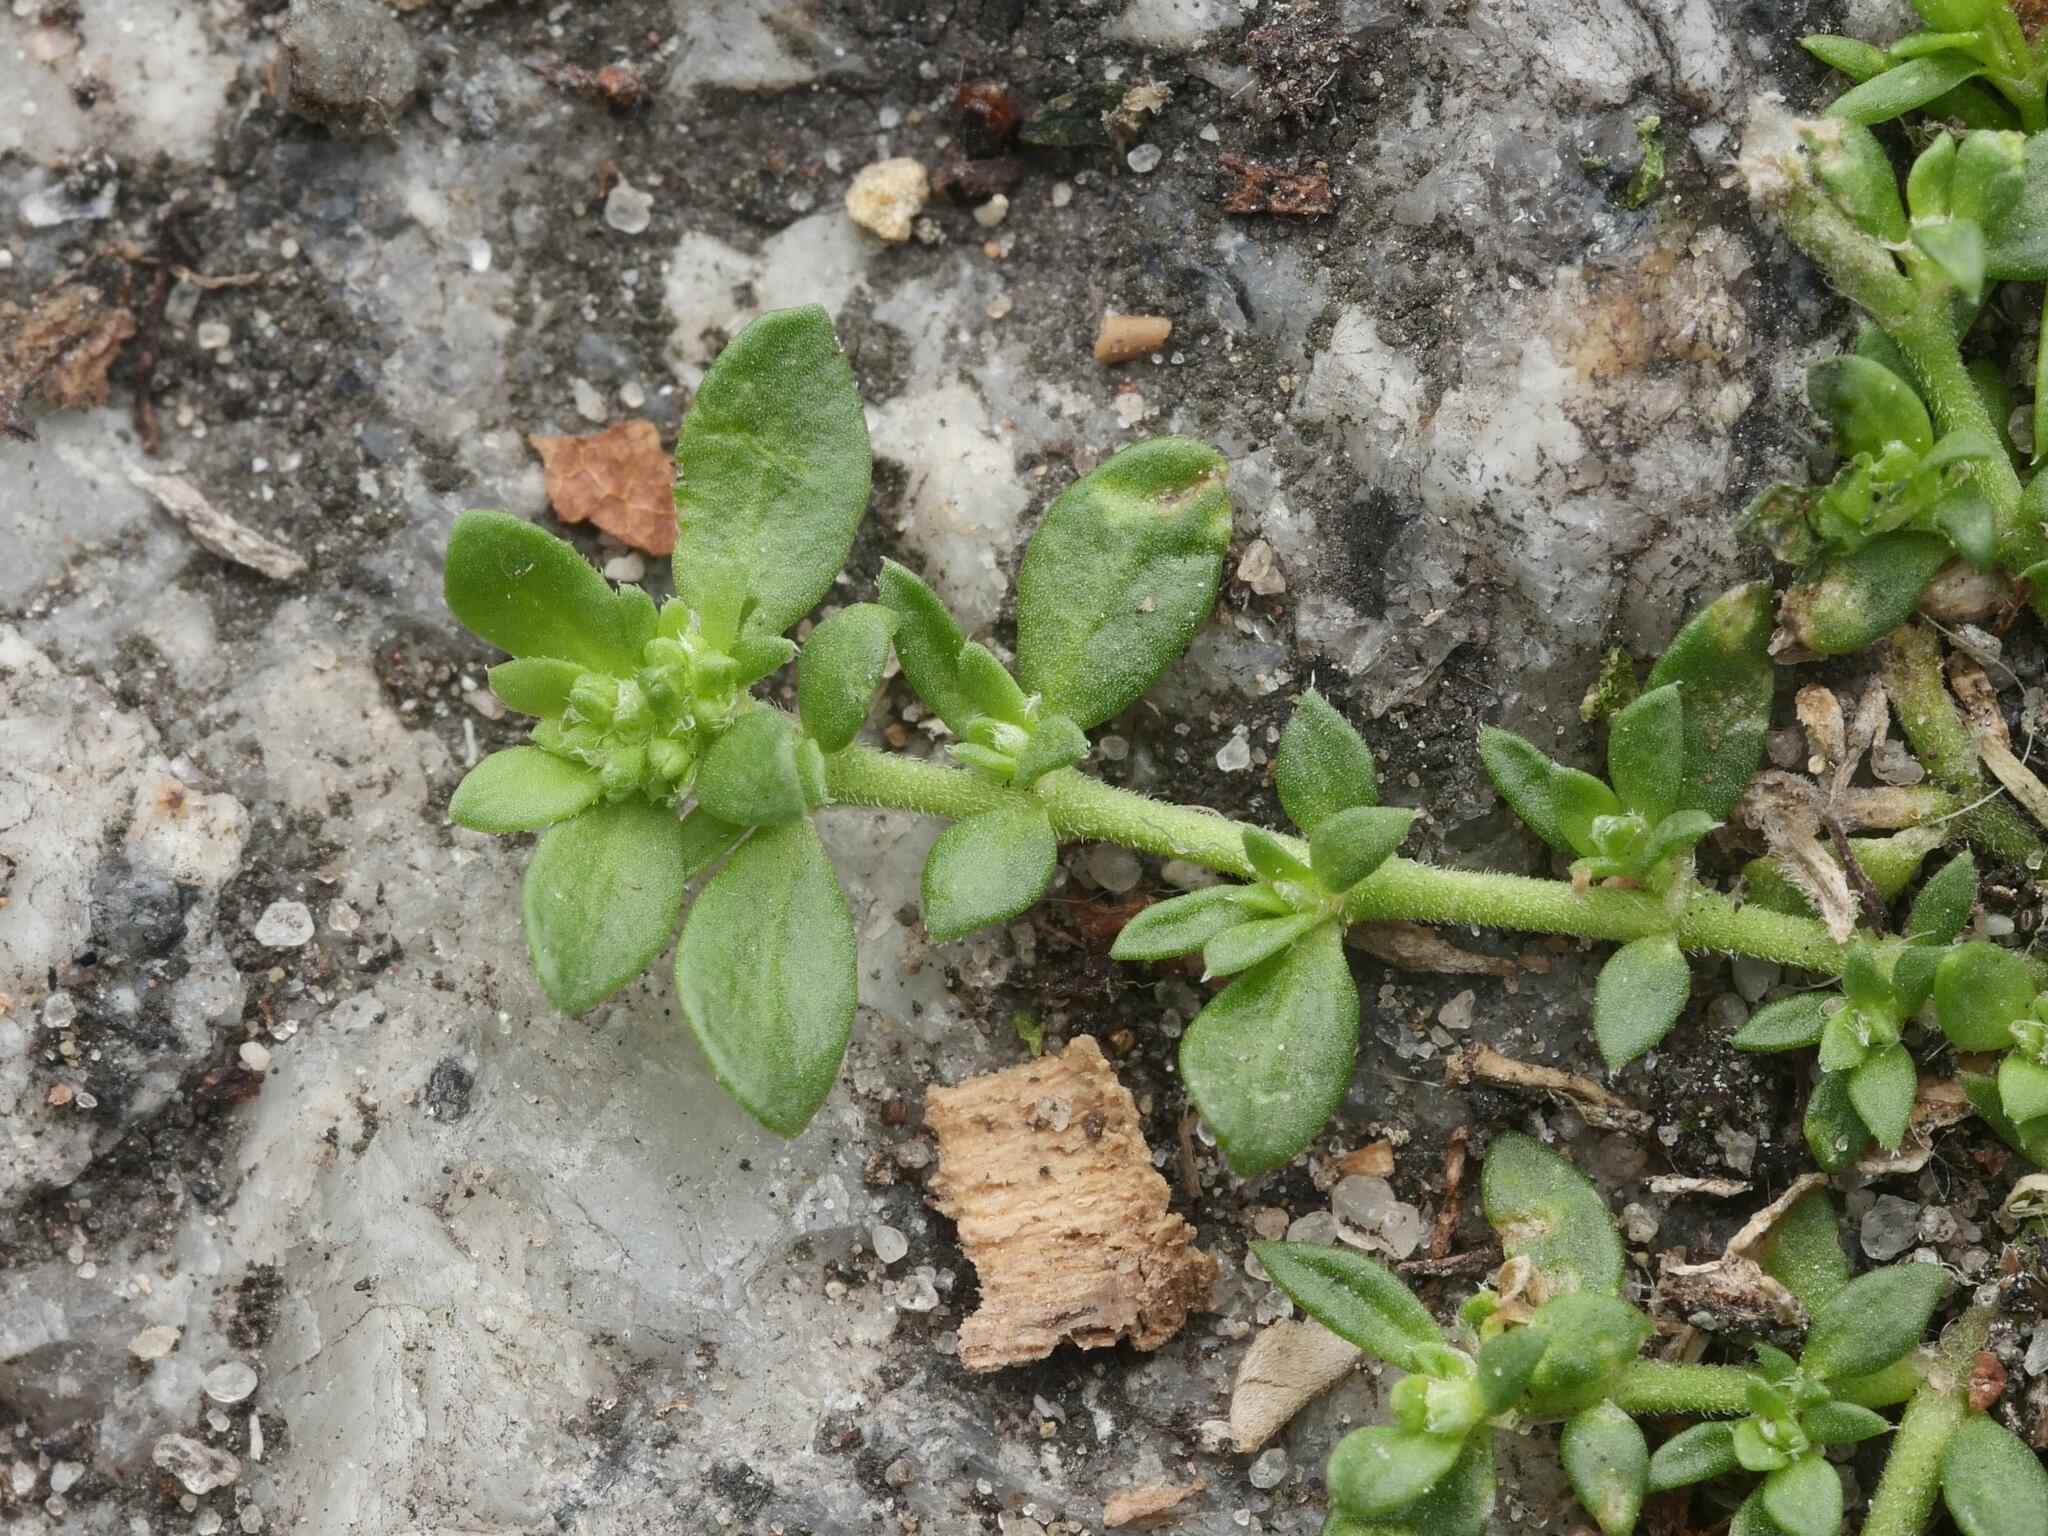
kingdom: Plantae
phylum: Tracheophyta
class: Magnoliopsida
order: Caryophyllales
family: Caryophyllaceae
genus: Herniaria
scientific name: Herniaria glabra
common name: Smooth rupturewort
